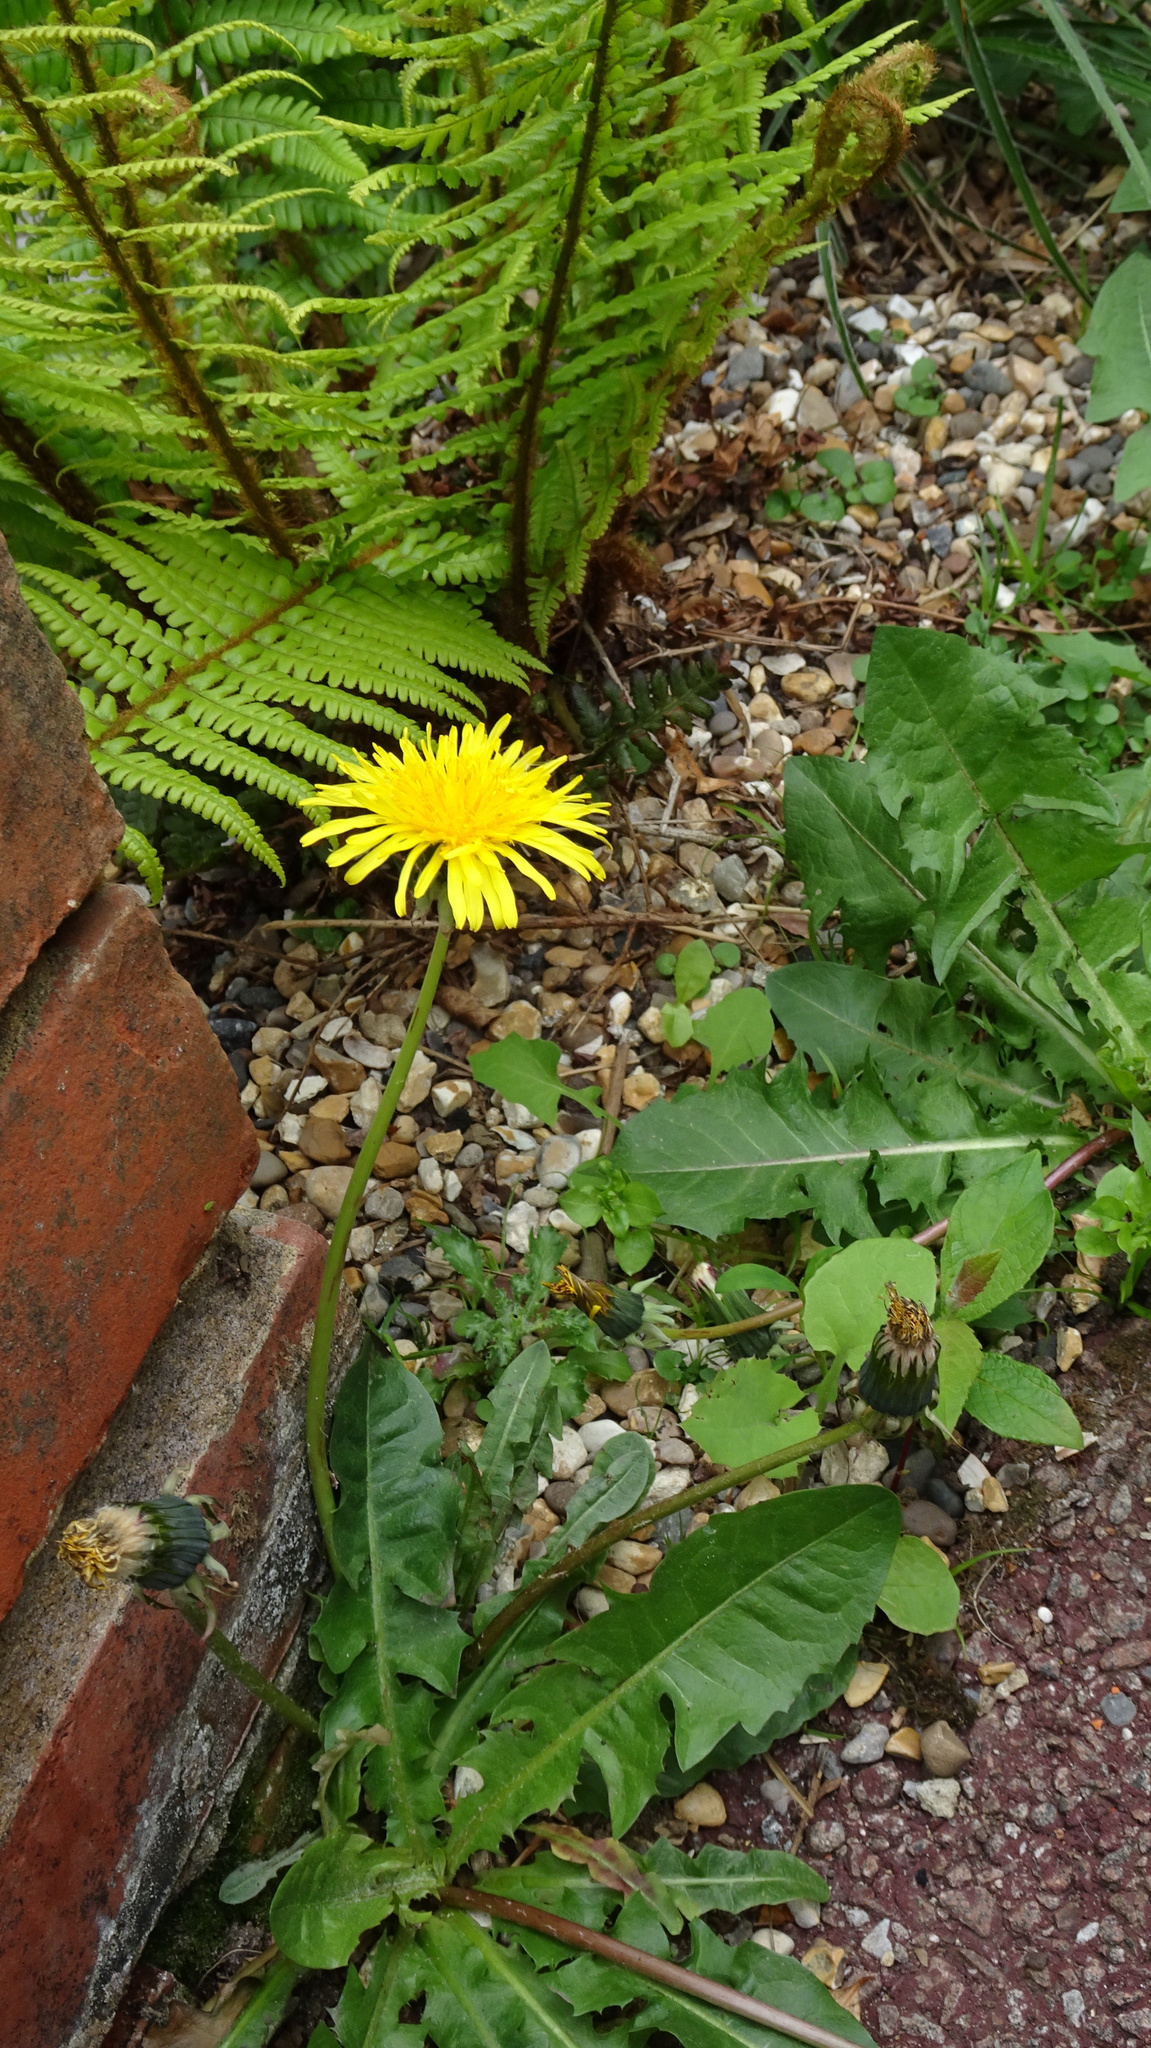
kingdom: Plantae
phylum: Tracheophyta
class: Magnoliopsida
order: Asterales
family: Asteraceae
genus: Taraxacum
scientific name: Taraxacum officinale
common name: Common dandelion
